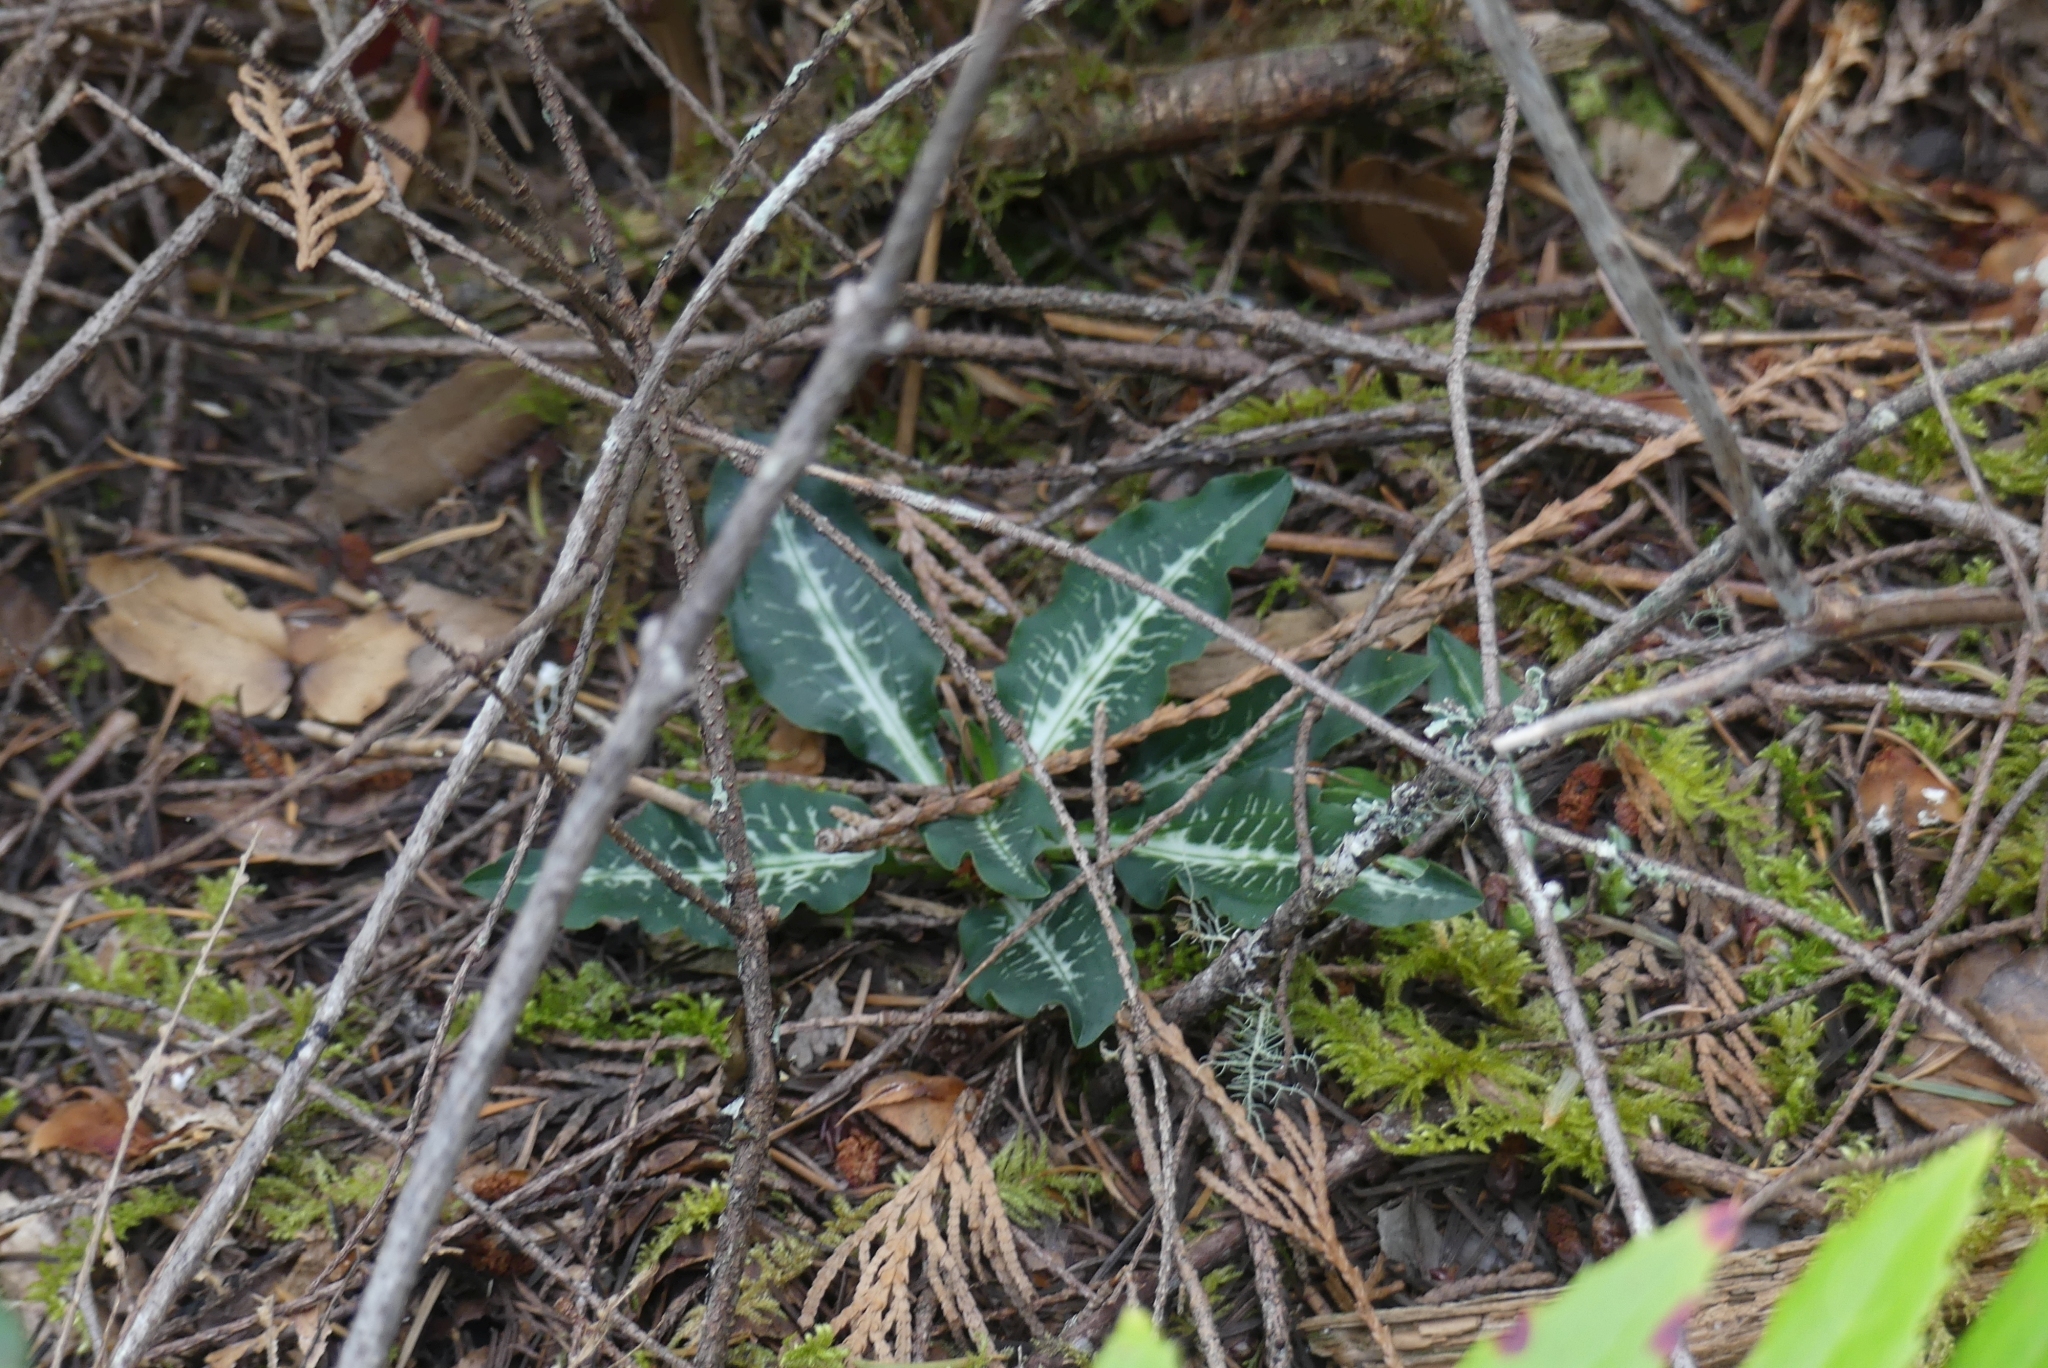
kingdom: Plantae
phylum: Tracheophyta
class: Liliopsida
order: Asparagales
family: Orchidaceae
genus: Goodyera
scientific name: Goodyera oblongifolia
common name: Giant rattlesnake-plantain
